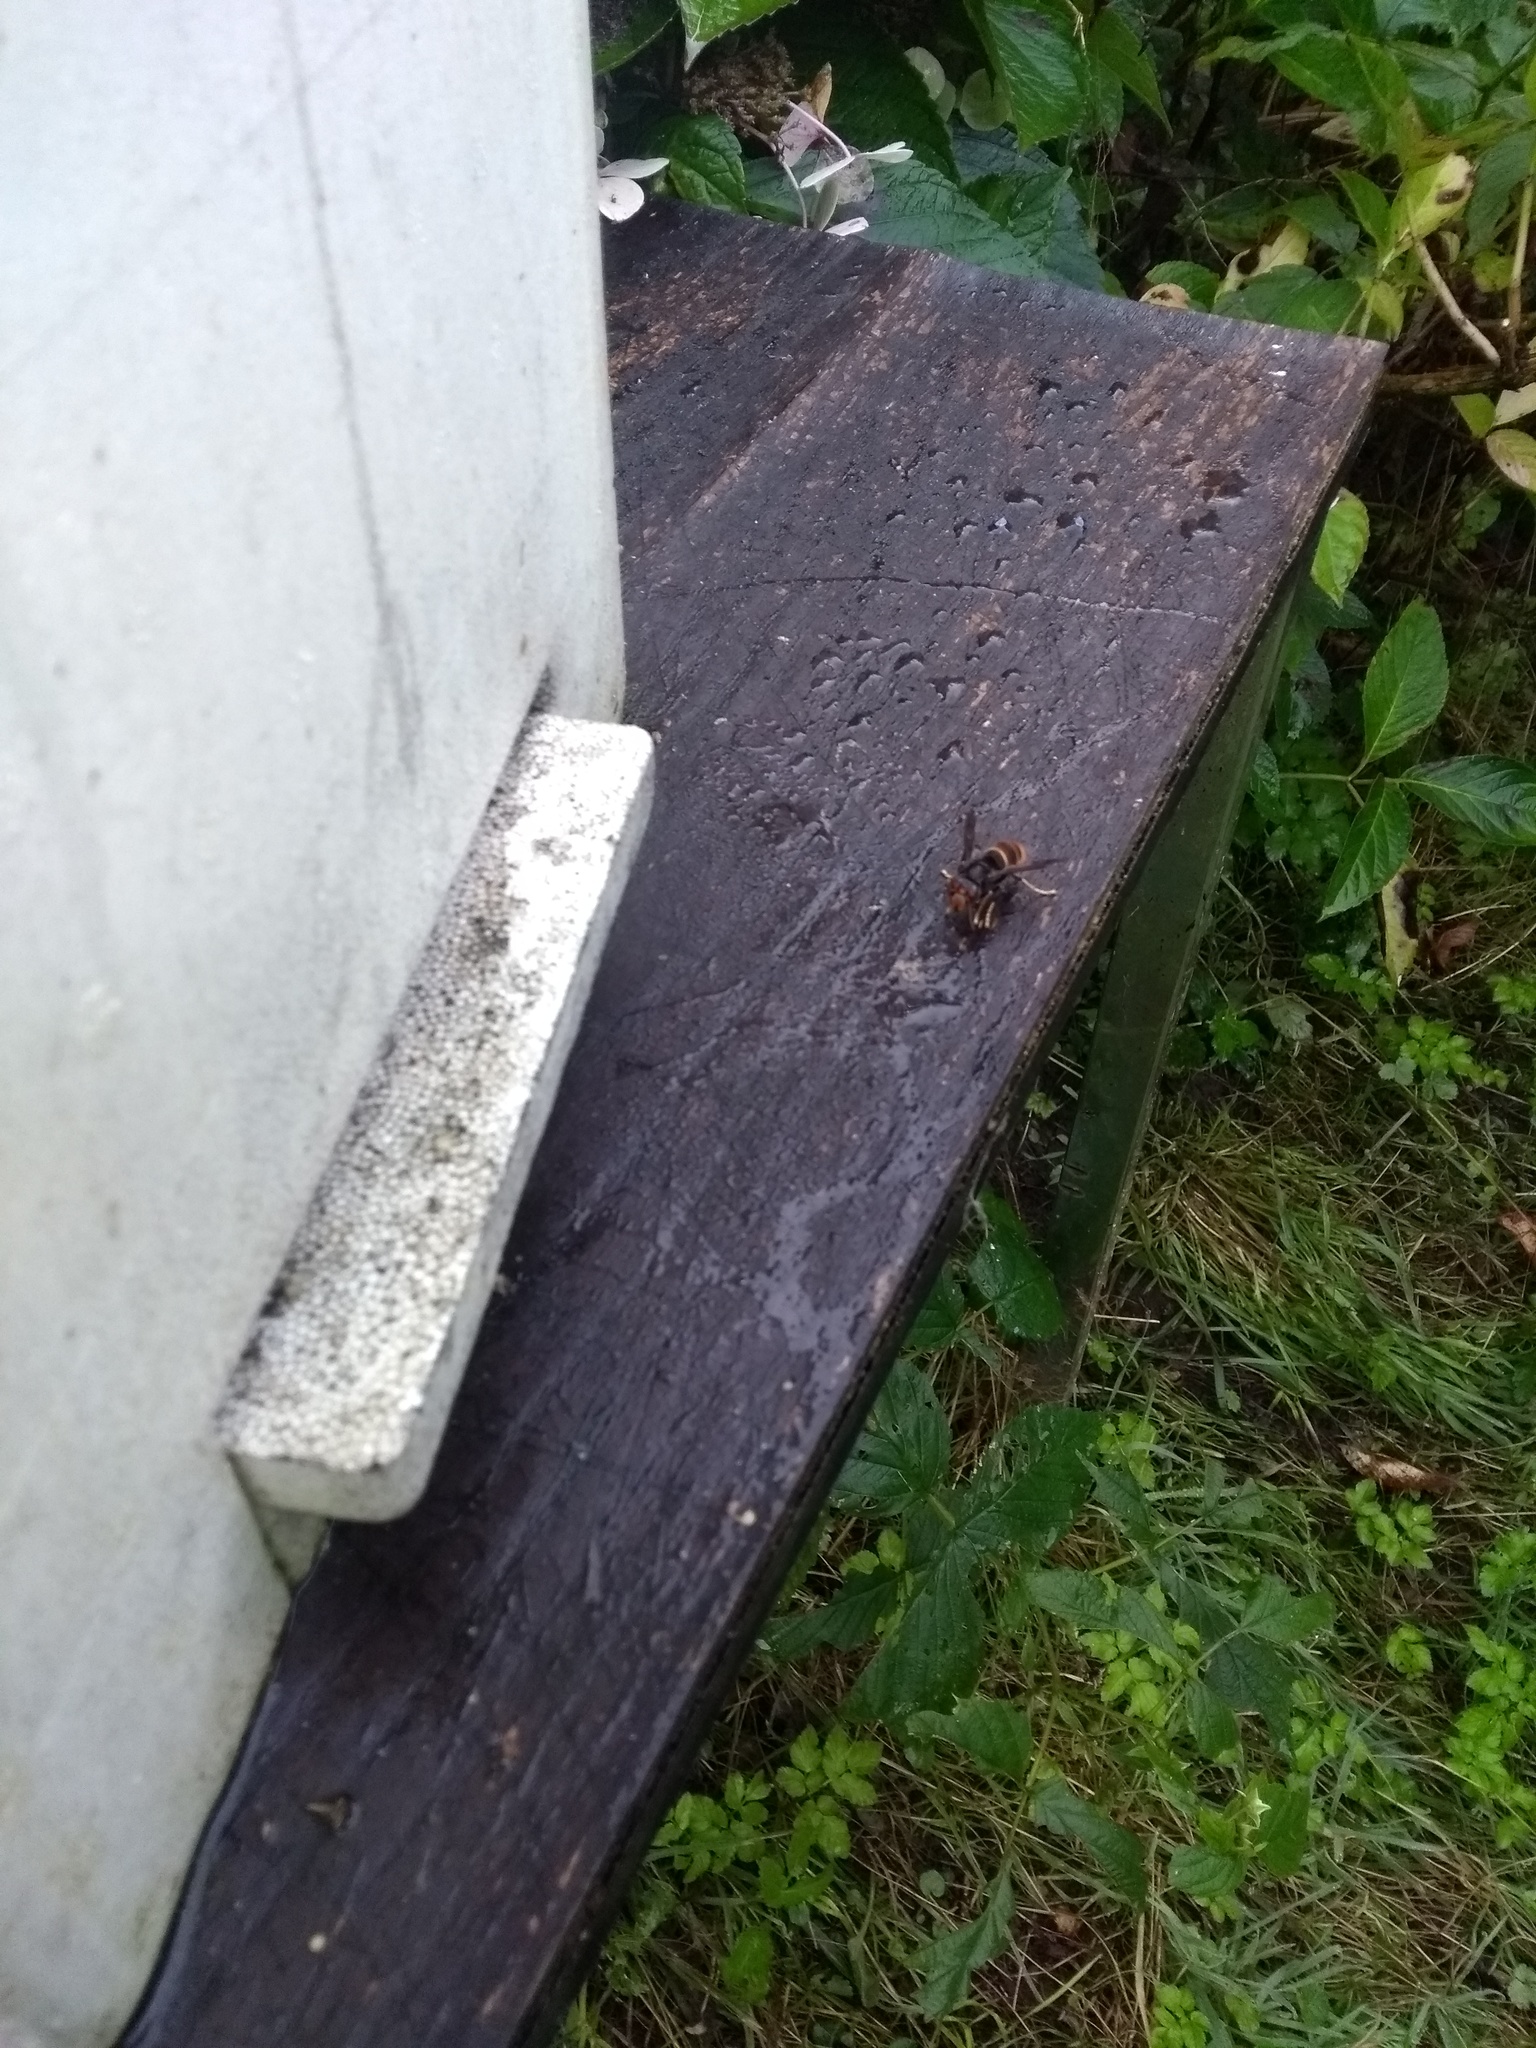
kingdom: Animalia
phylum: Arthropoda
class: Insecta
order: Hymenoptera
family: Vespidae
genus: Vespa
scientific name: Vespa velutina
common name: Asian hornet
